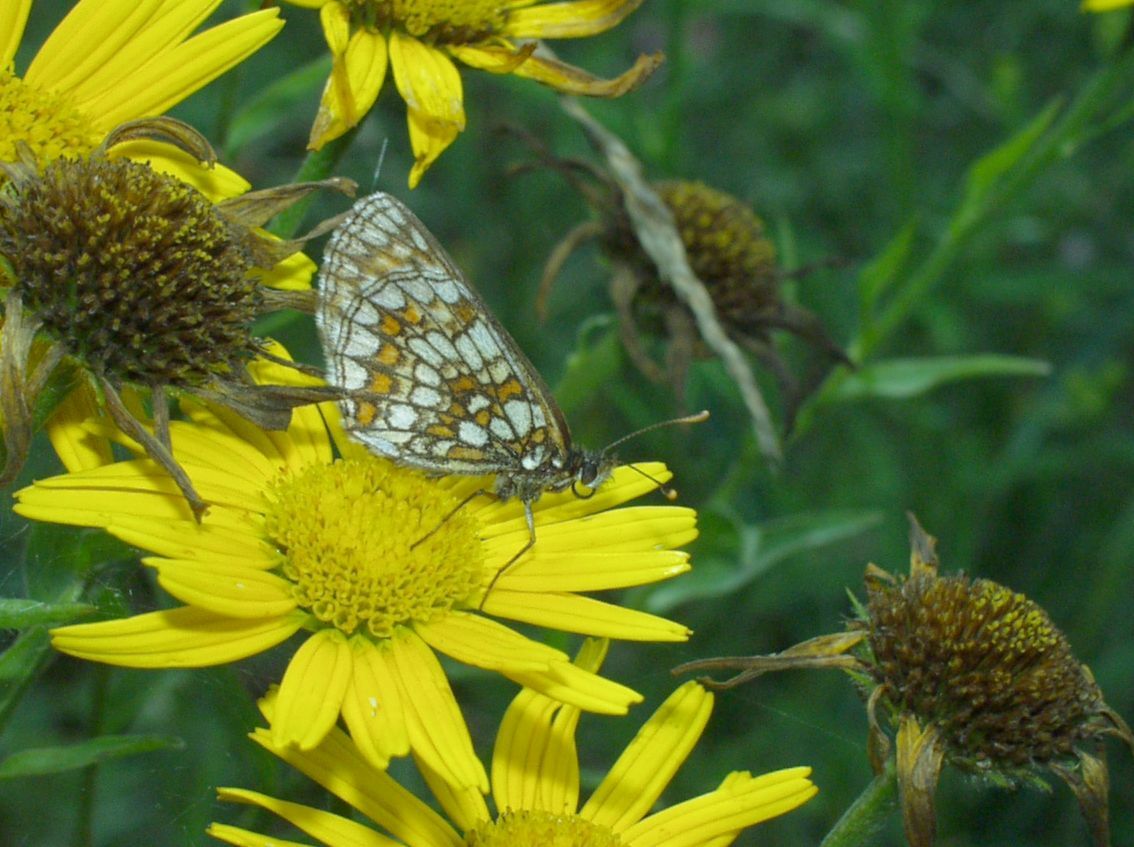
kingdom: Animalia
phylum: Arthropoda
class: Insecta
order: Lepidoptera
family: Nymphalidae
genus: Melitaea
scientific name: Melitaea athalia
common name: Heath fritillary
